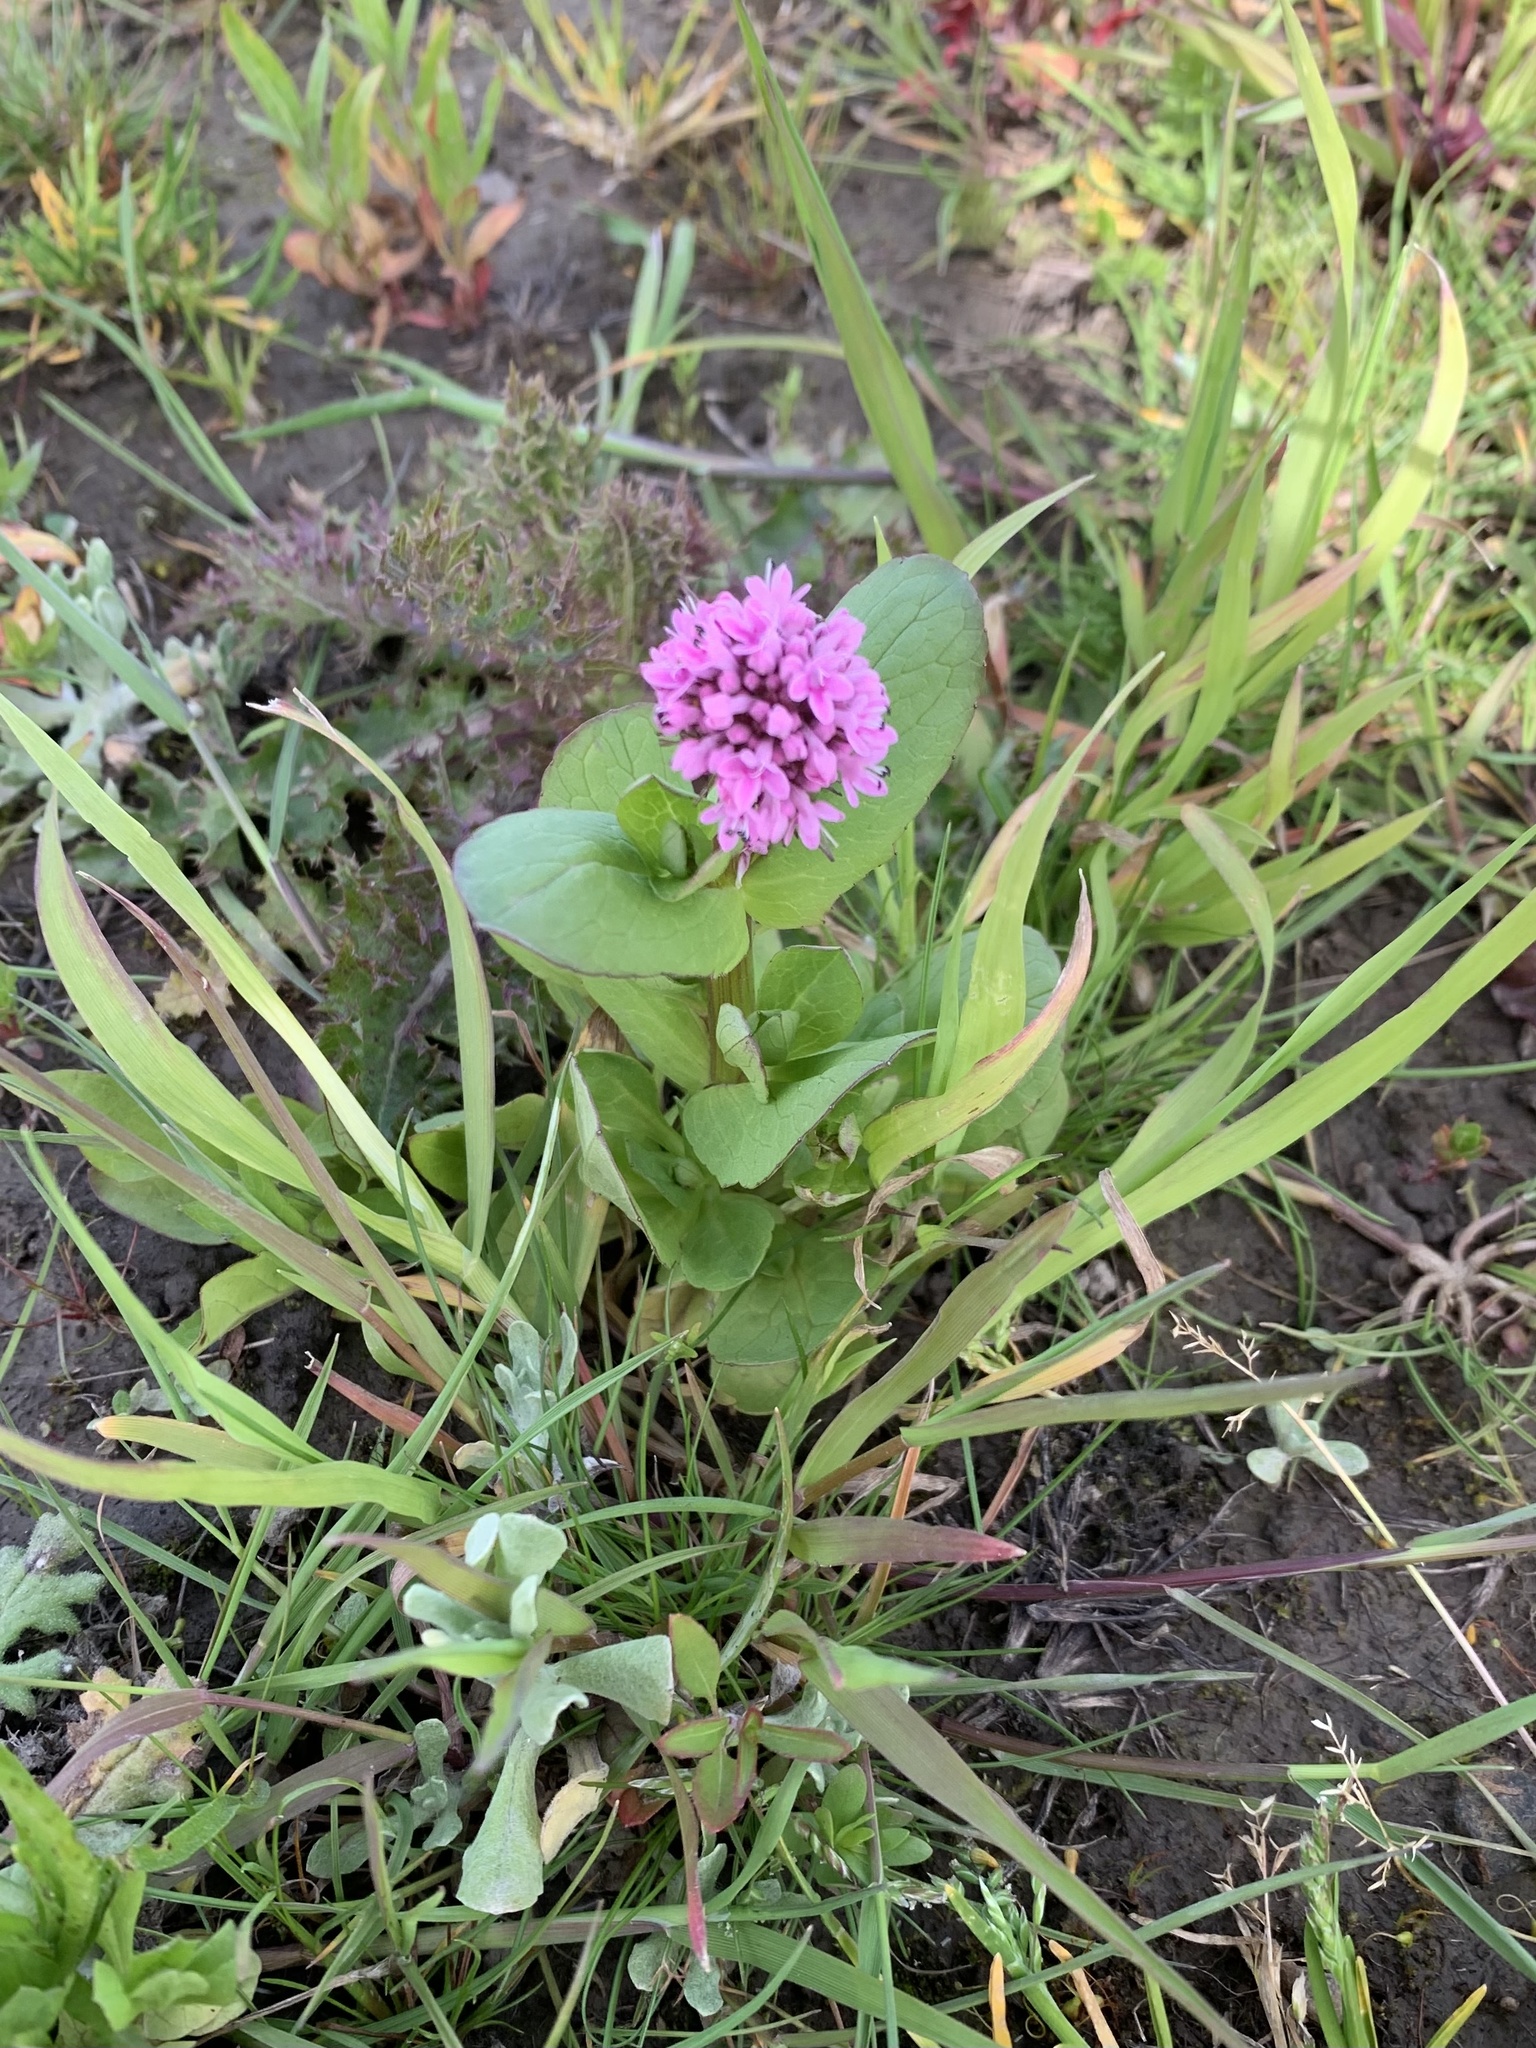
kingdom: Plantae
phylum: Tracheophyta
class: Magnoliopsida
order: Dipsacales
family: Caprifoliaceae
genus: Plectritis
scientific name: Plectritis congesta
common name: Pink plectritis
